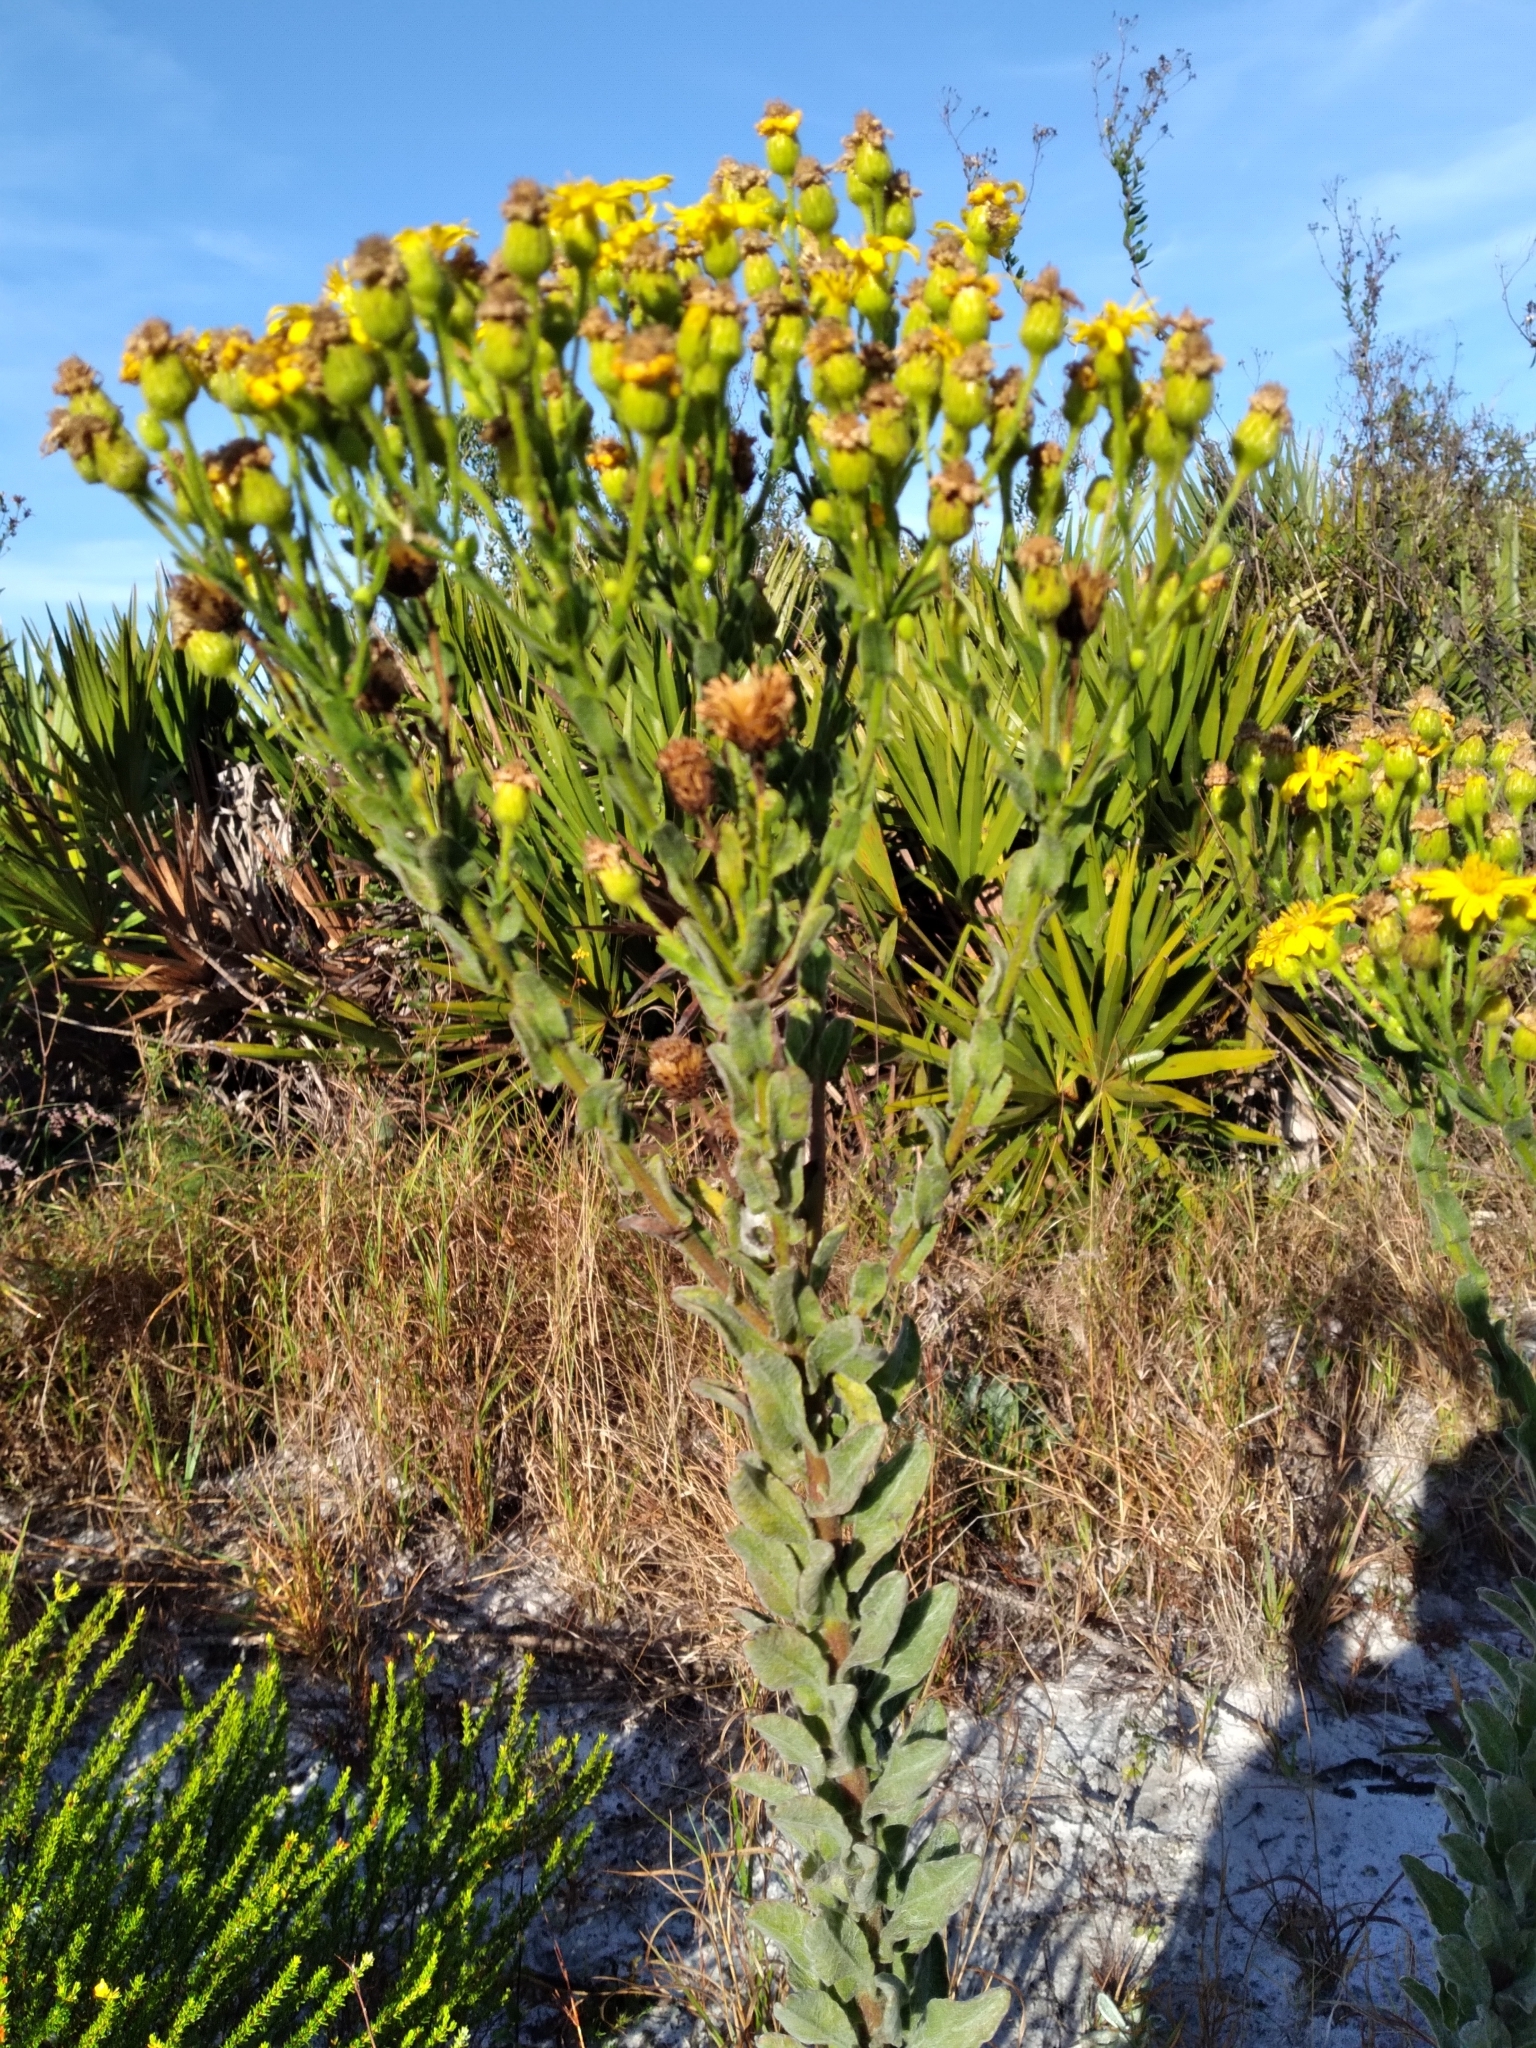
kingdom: Plantae
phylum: Tracheophyta
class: Magnoliopsida
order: Asterales
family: Asteraceae
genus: Chrysopsis
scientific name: Chrysopsis floridana
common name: Florida golden-aster
